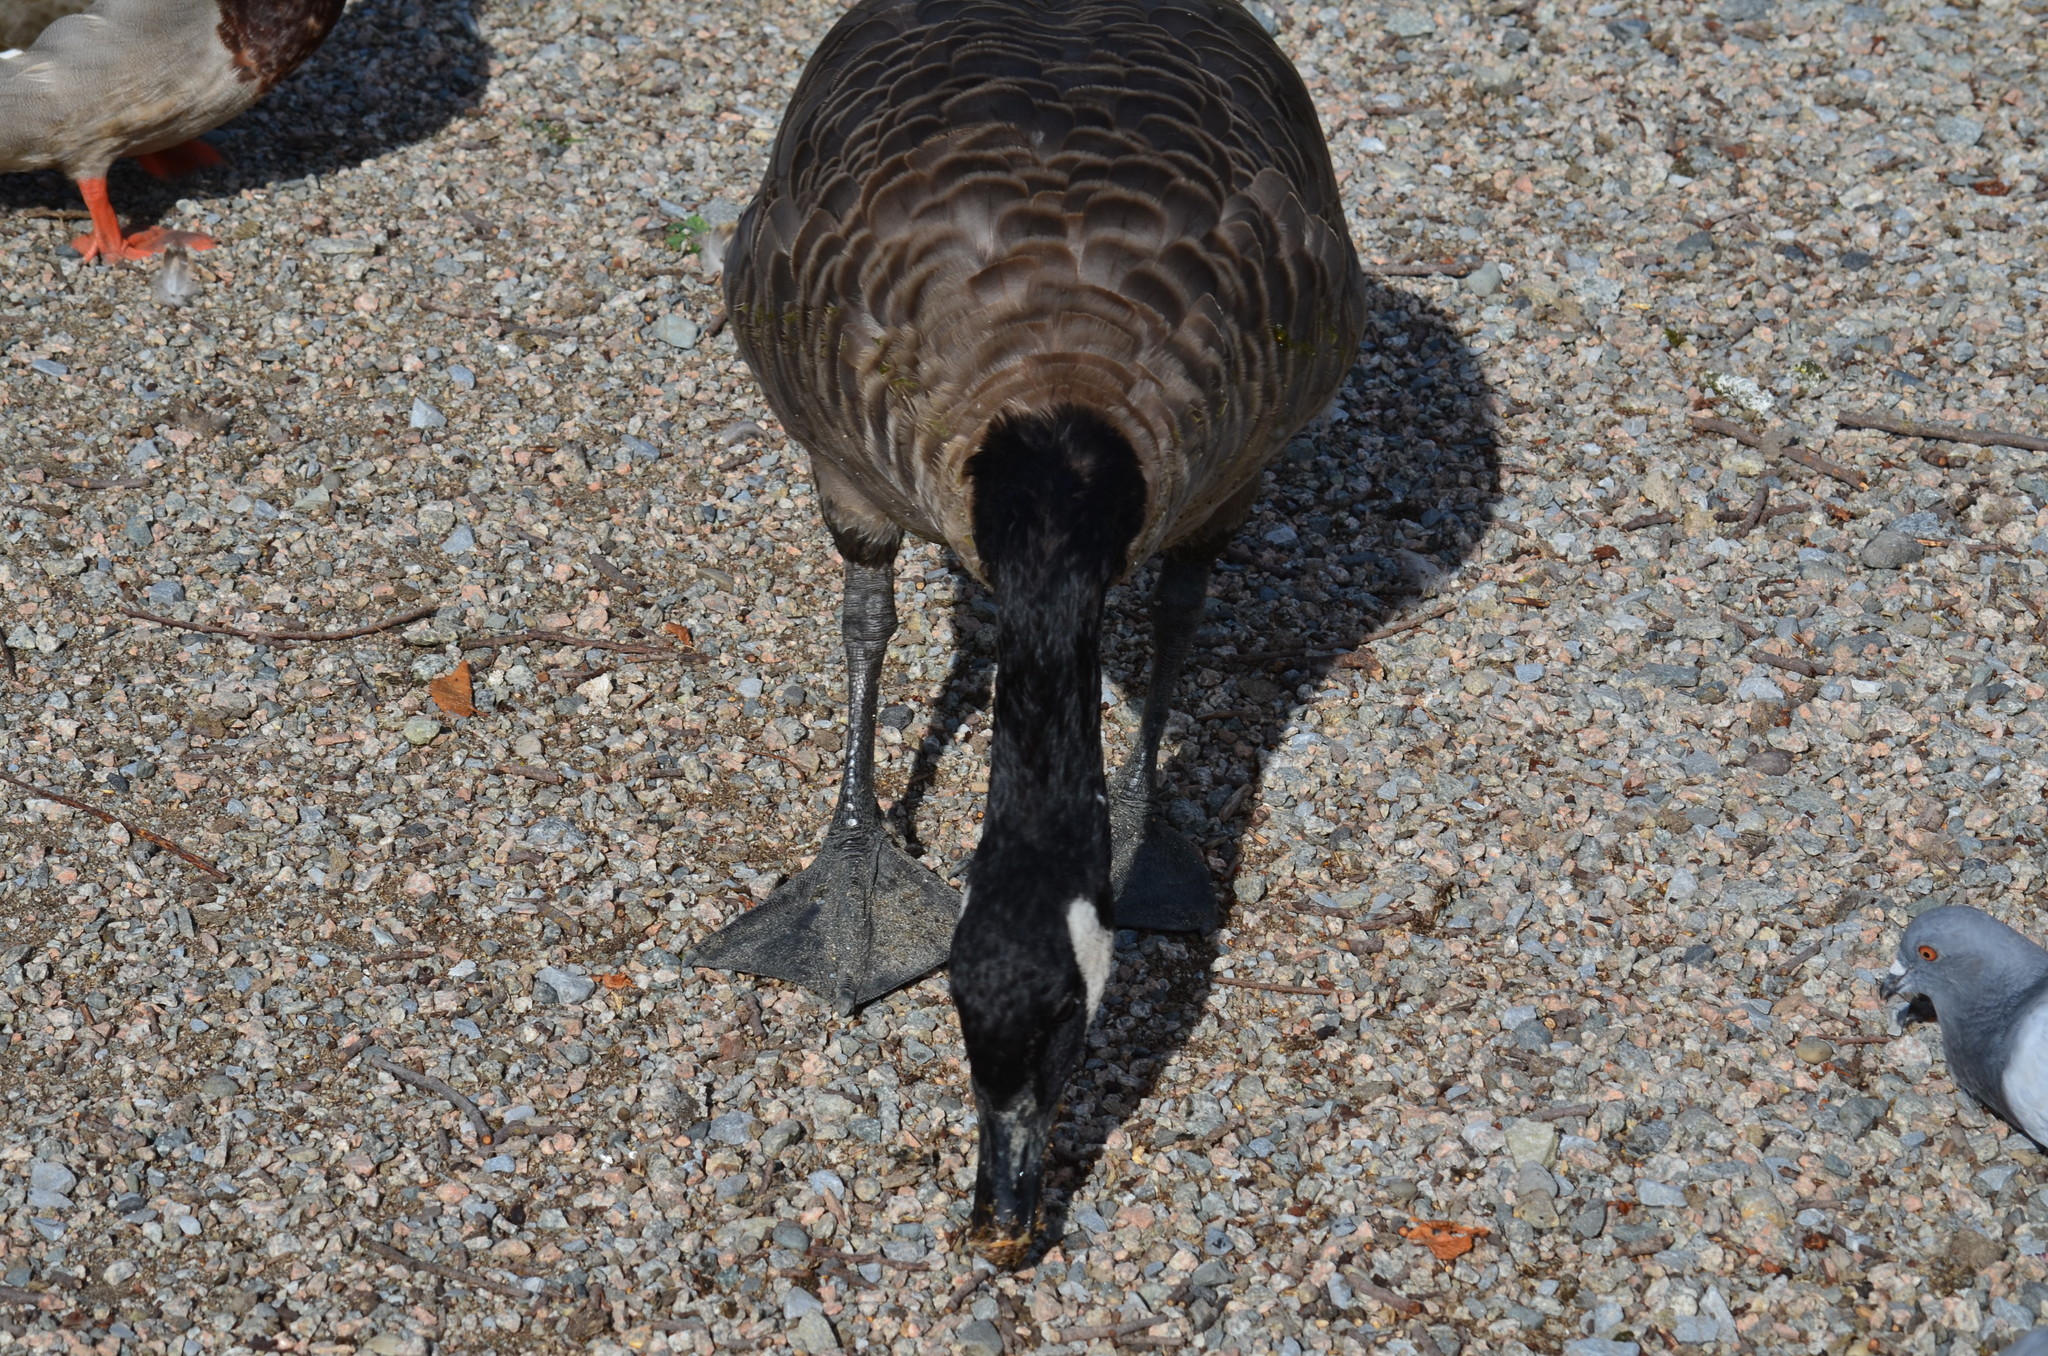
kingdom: Animalia
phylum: Chordata
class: Aves
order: Anseriformes
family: Anatidae
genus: Branta
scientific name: Branta canadensis
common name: Canada goose
